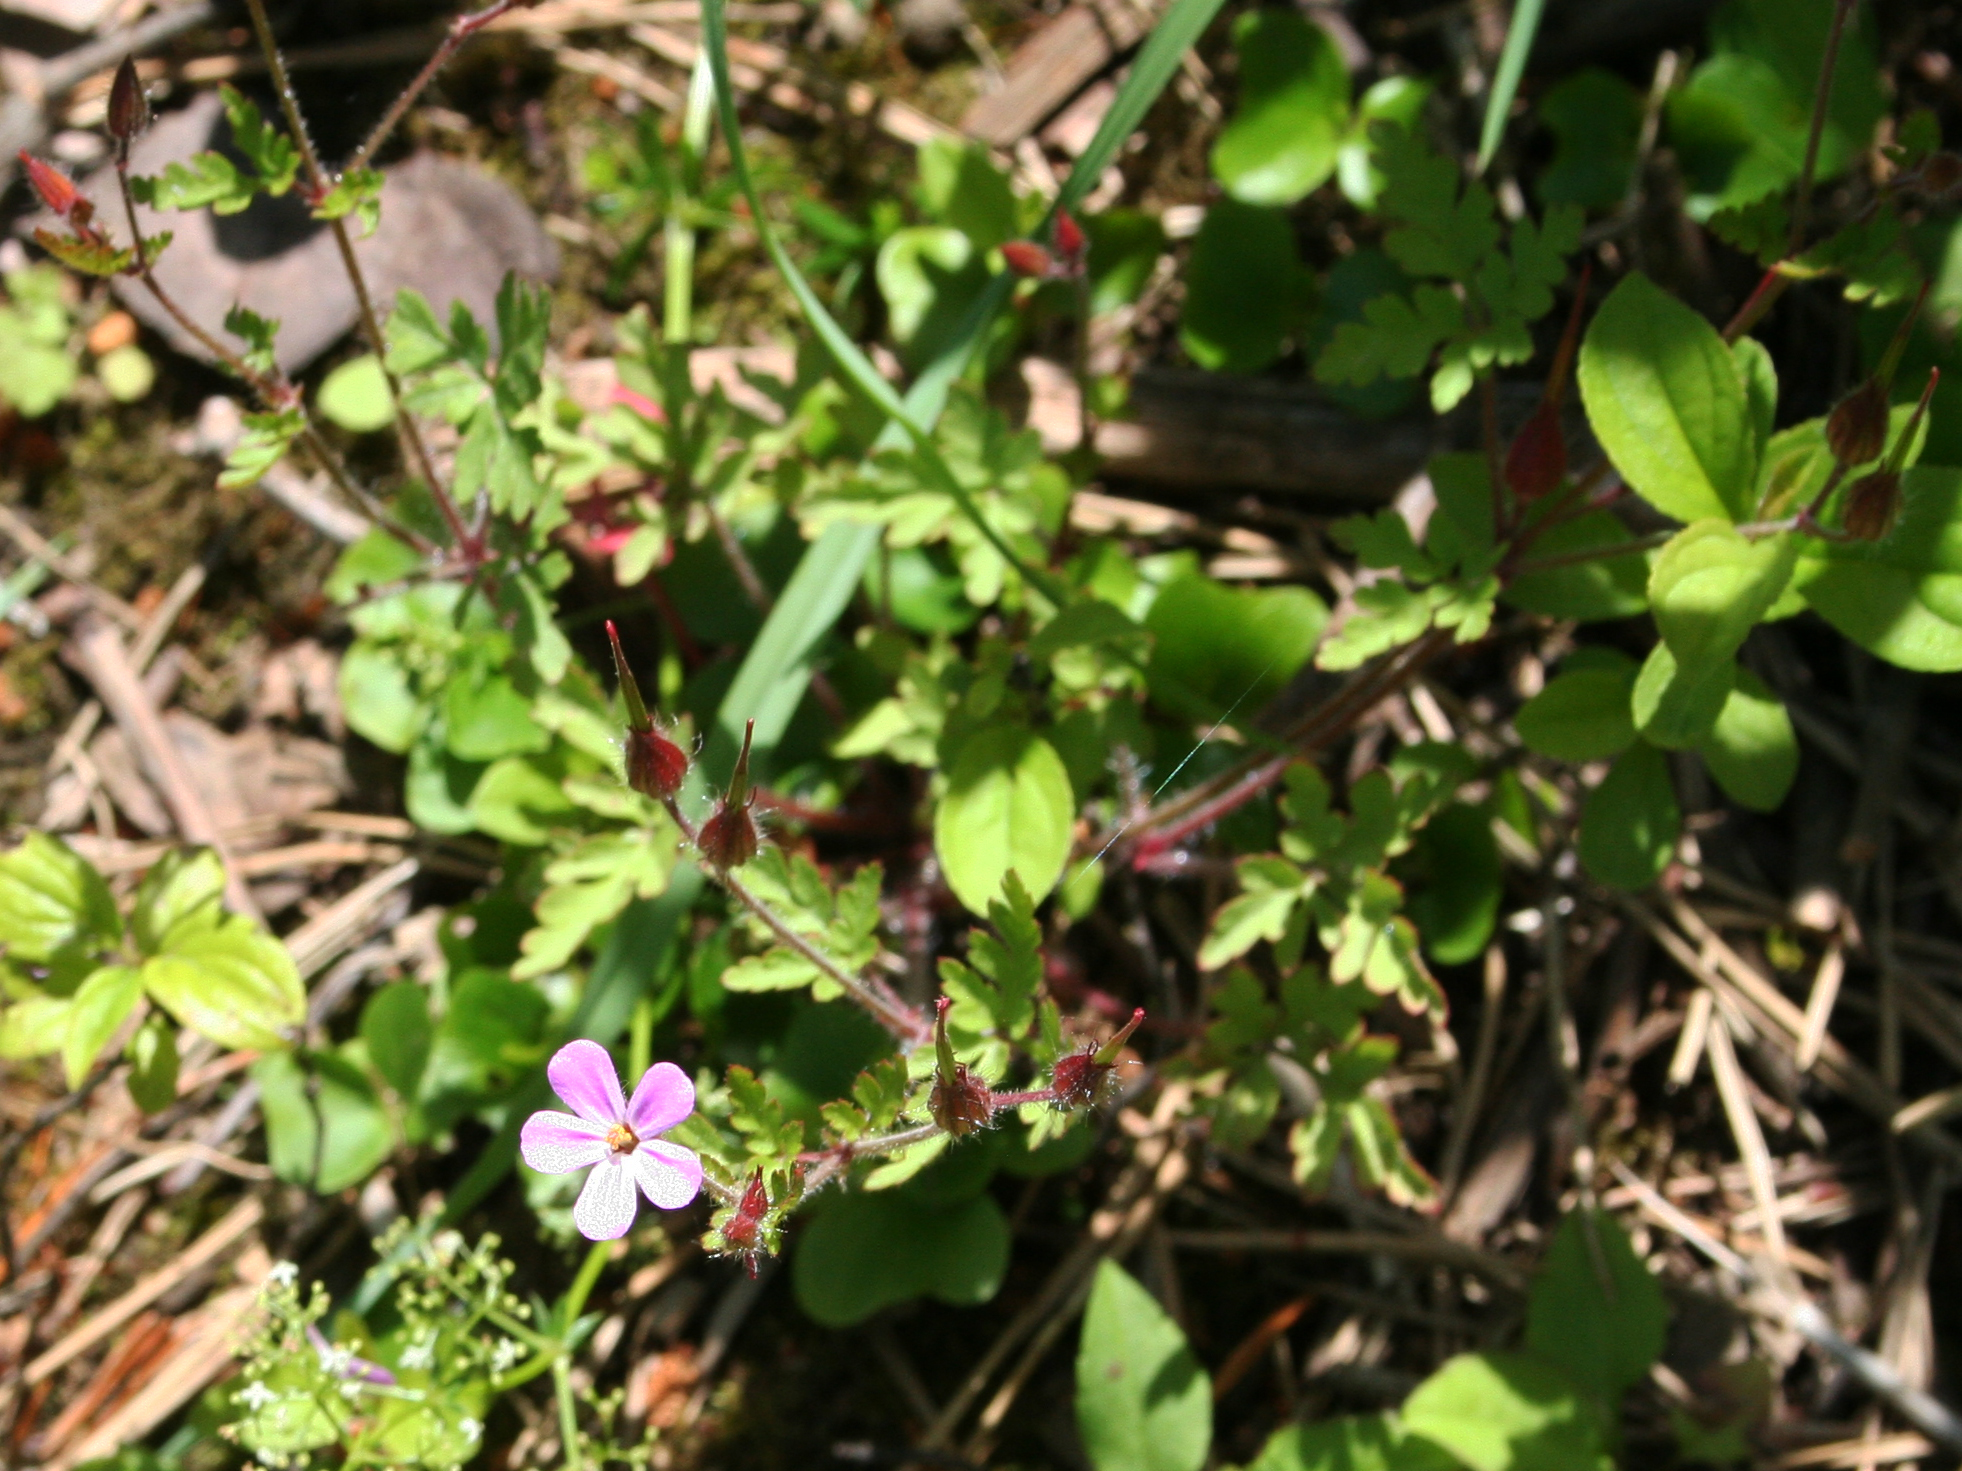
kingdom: Plantae
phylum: Tracheophyta
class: Magnoliopsida
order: Geraniales
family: Geraniaceae
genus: Geranium
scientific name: Geranium robertianum
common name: Herb-robert
